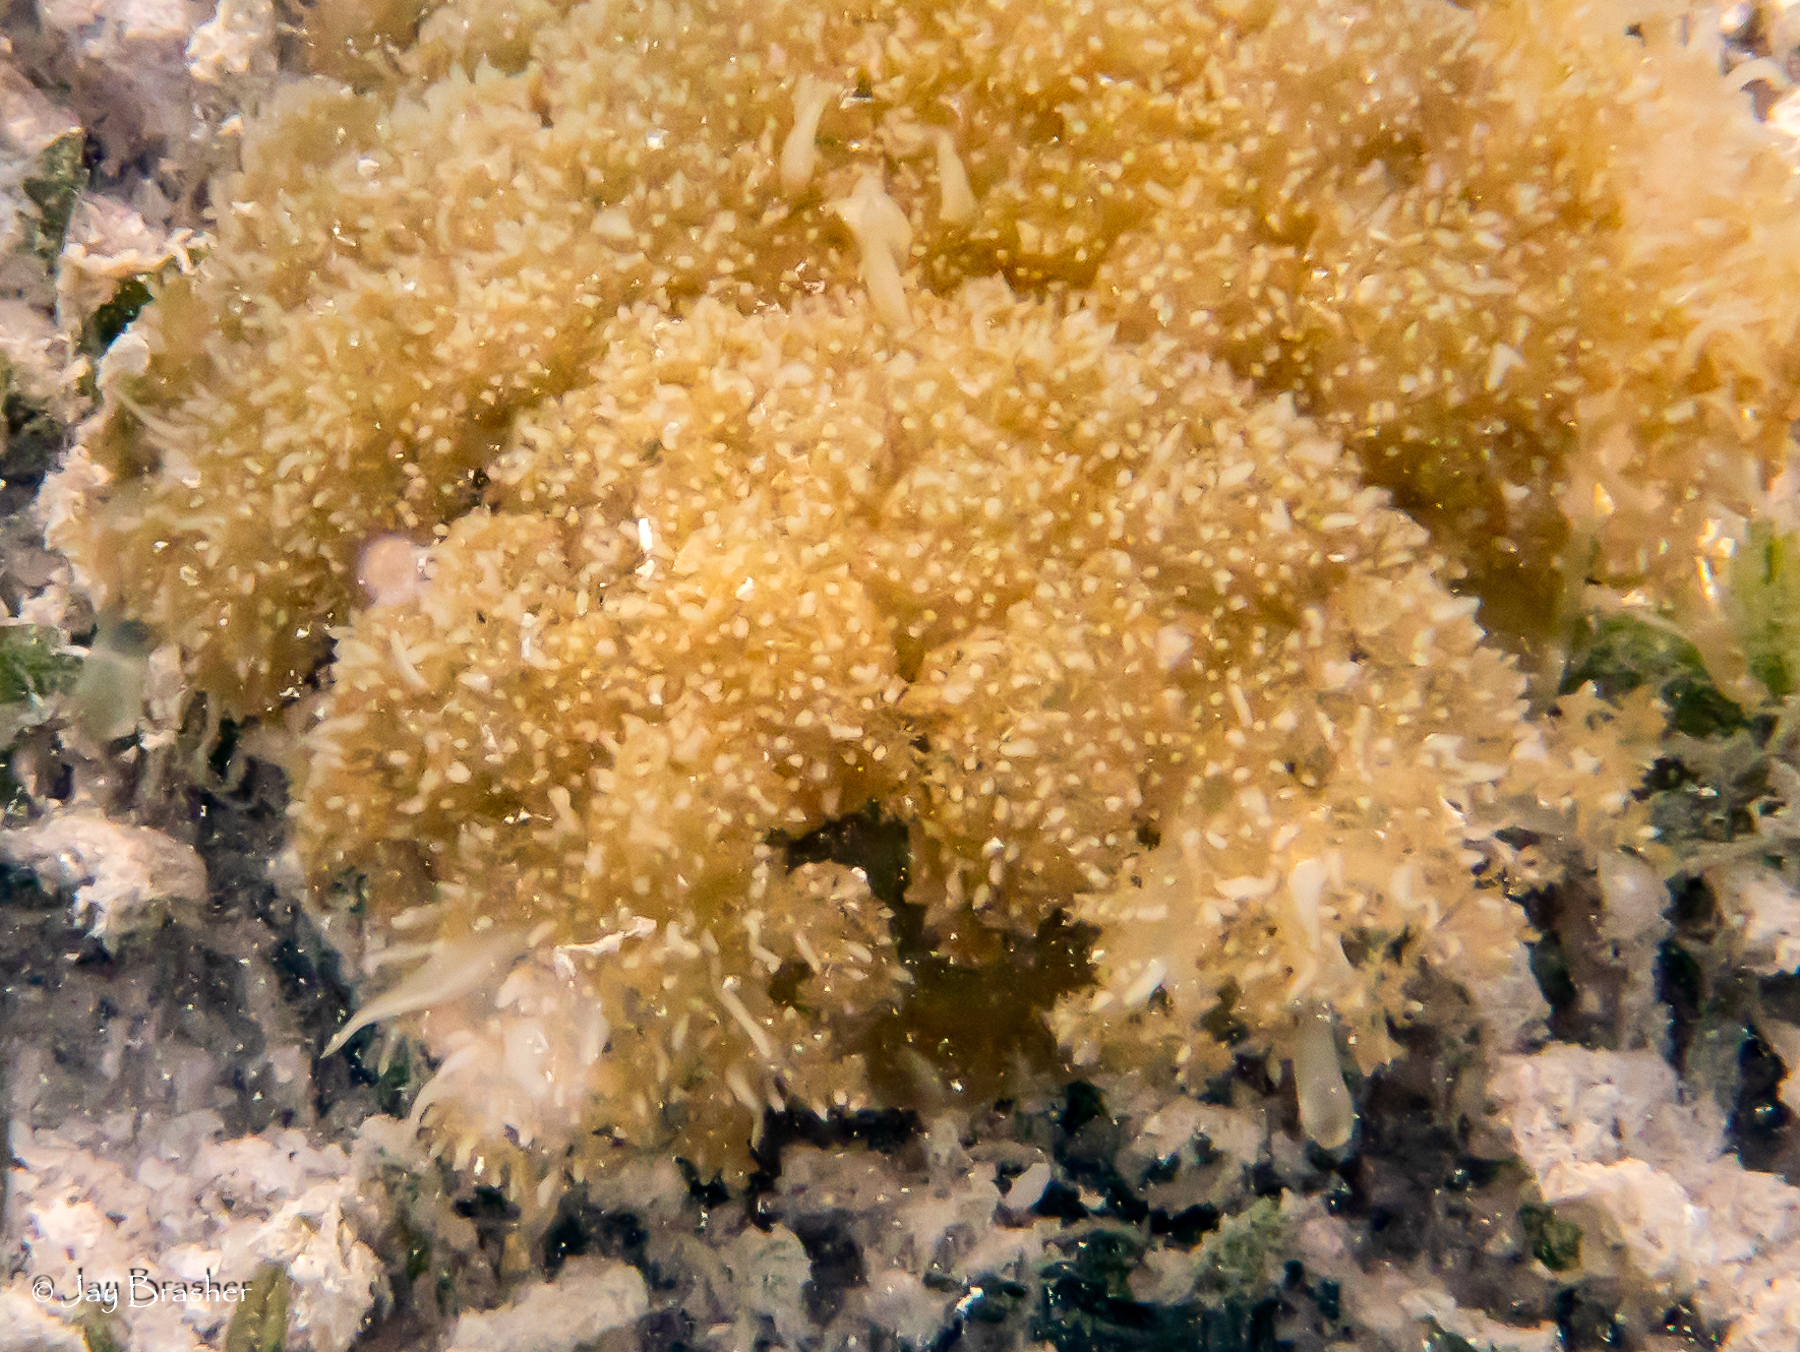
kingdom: Animalia
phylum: Cnidaria
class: Scyphozoa
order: Rhizostomeae
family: Cassiopeidae
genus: Cassiopea
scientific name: Cassiopea frondosa
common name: Upsidedown jellyfish
